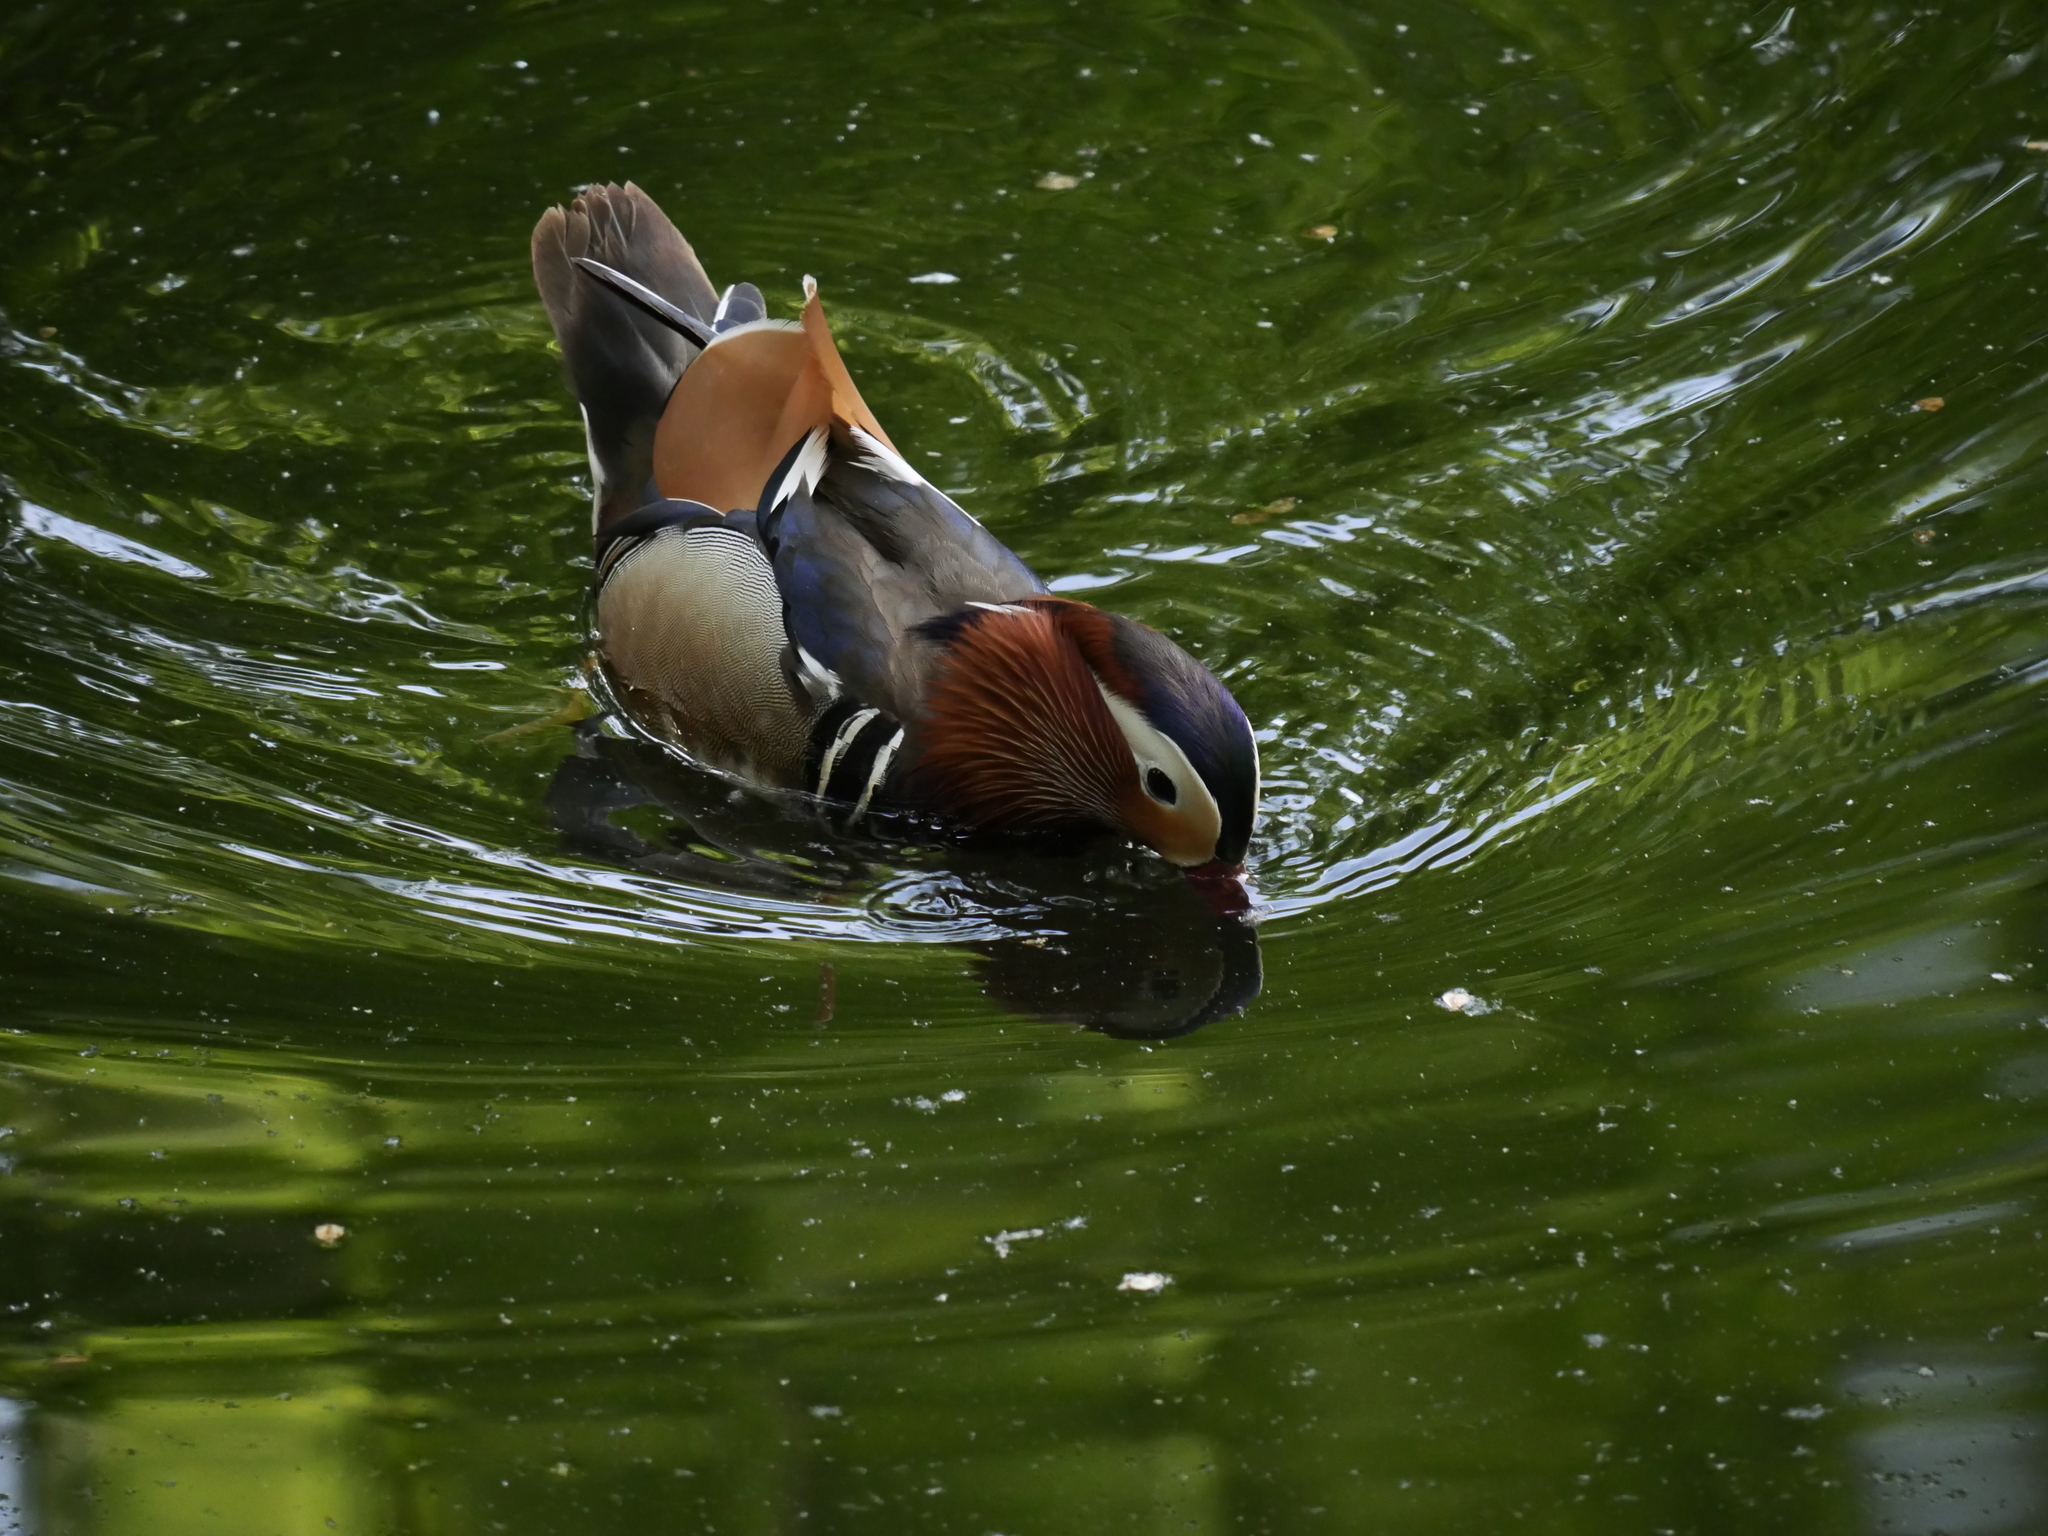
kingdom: Animalia
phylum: Chordata
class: Aves
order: Anseriformes
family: Anatidae
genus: Aix
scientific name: Aix galericulata
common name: Mandarin duck
